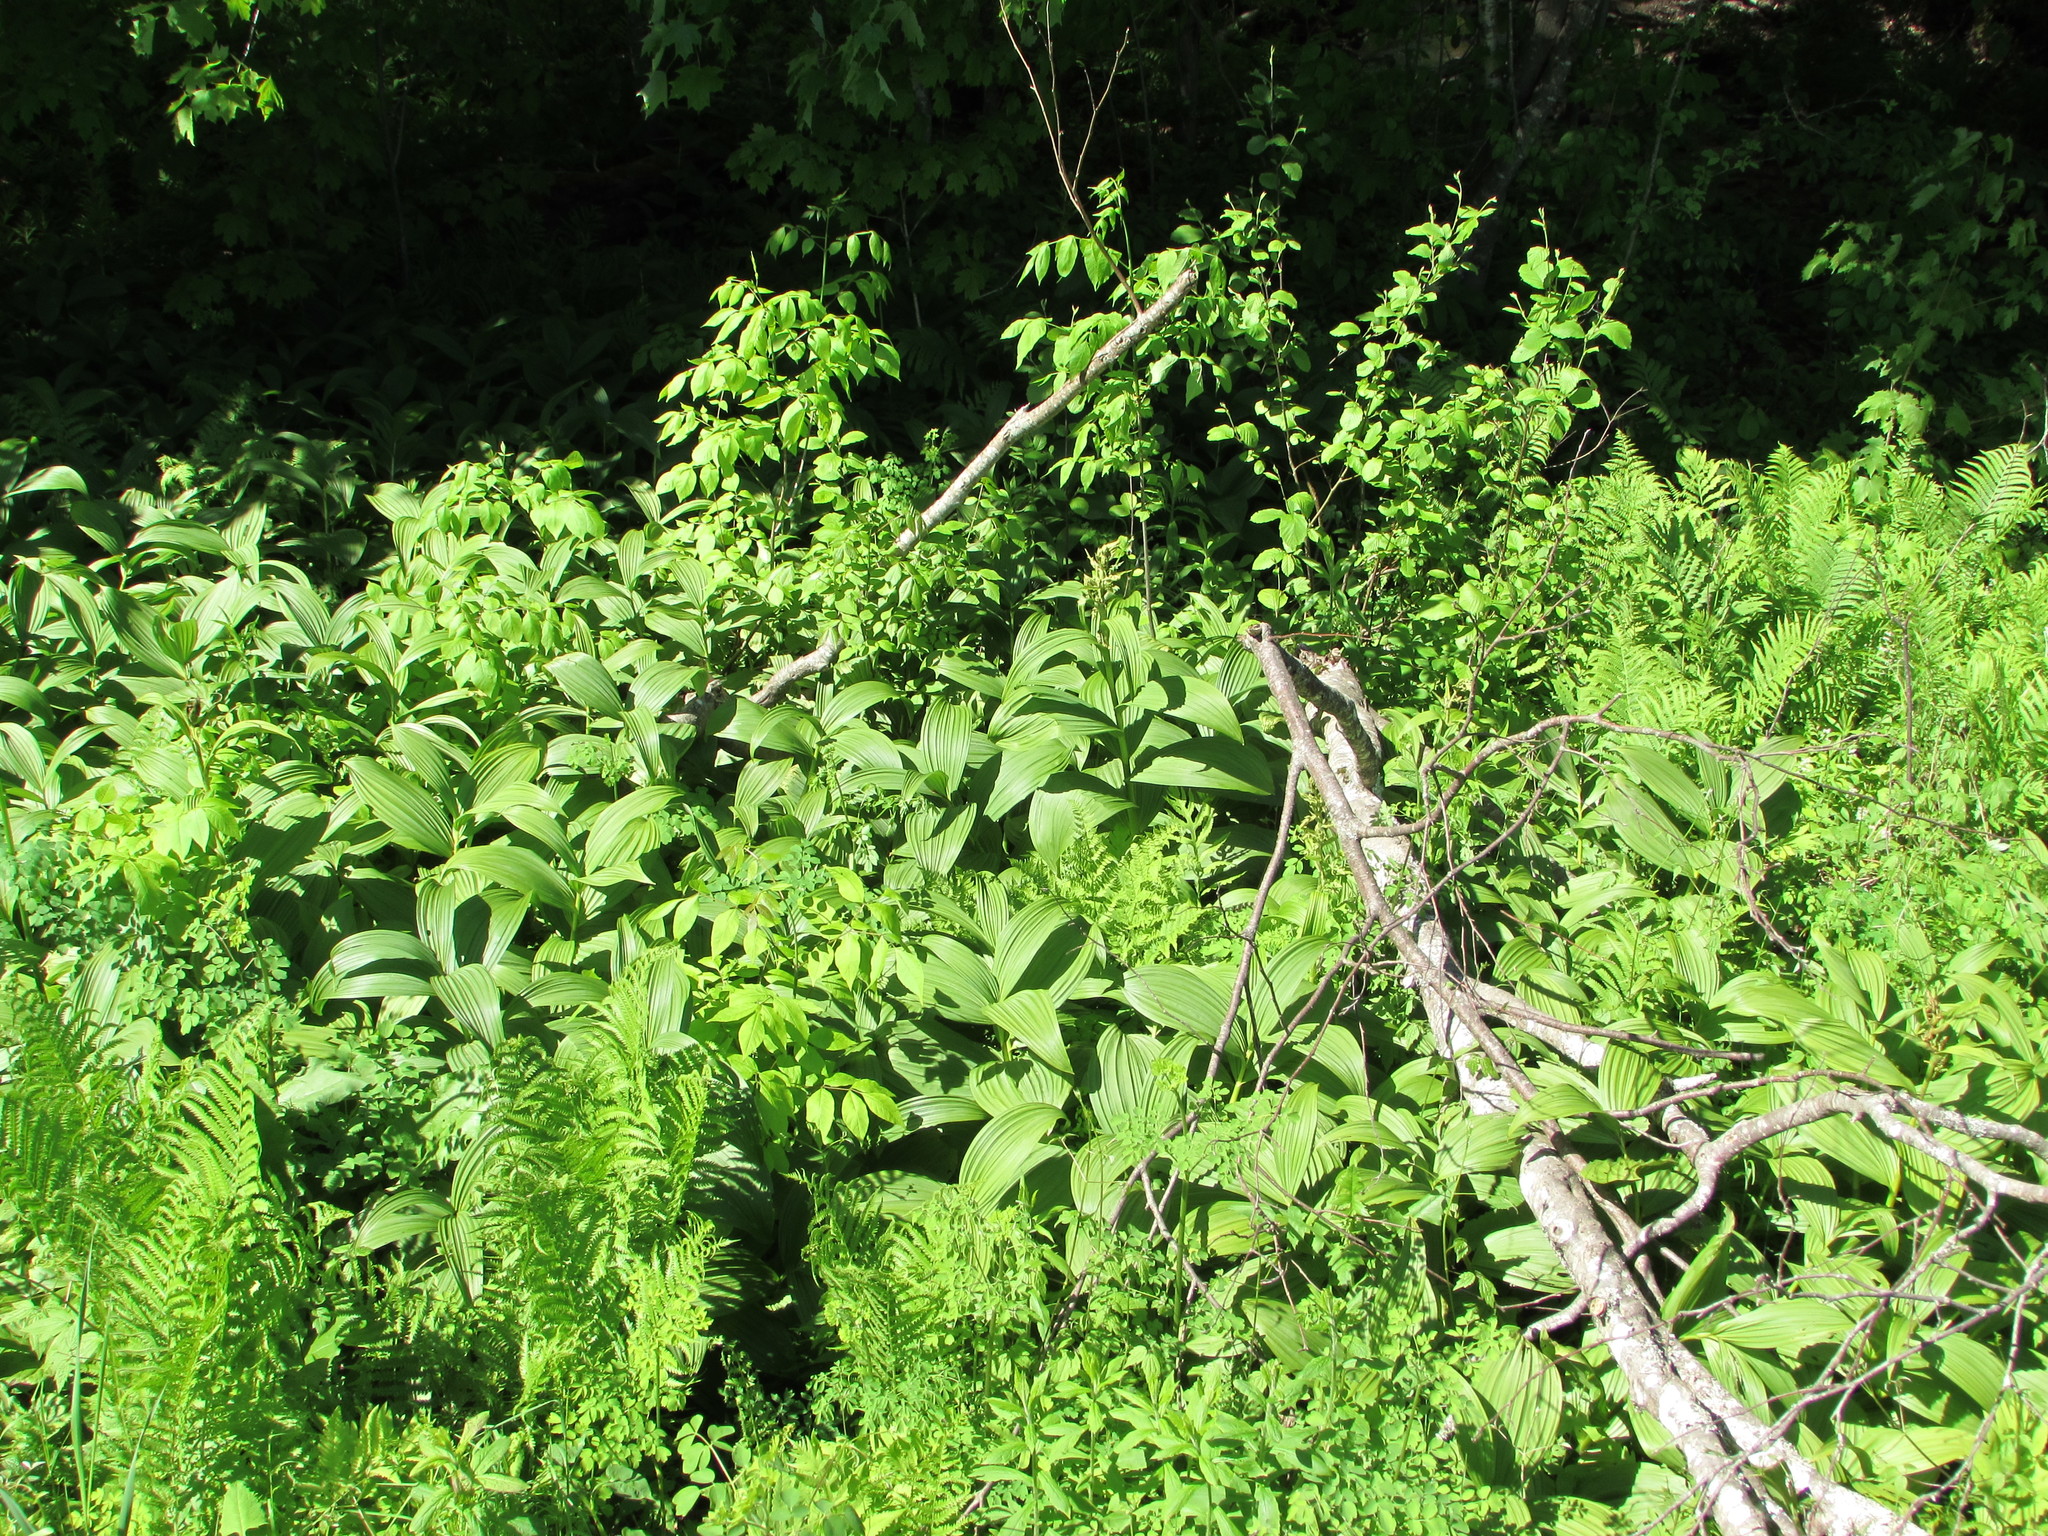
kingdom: Plantae
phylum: Tracheophyta
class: Liliopsida
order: Liliales
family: Melanthiaceae
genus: Veratrum
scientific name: Veratrum viride
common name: American false hellebore
